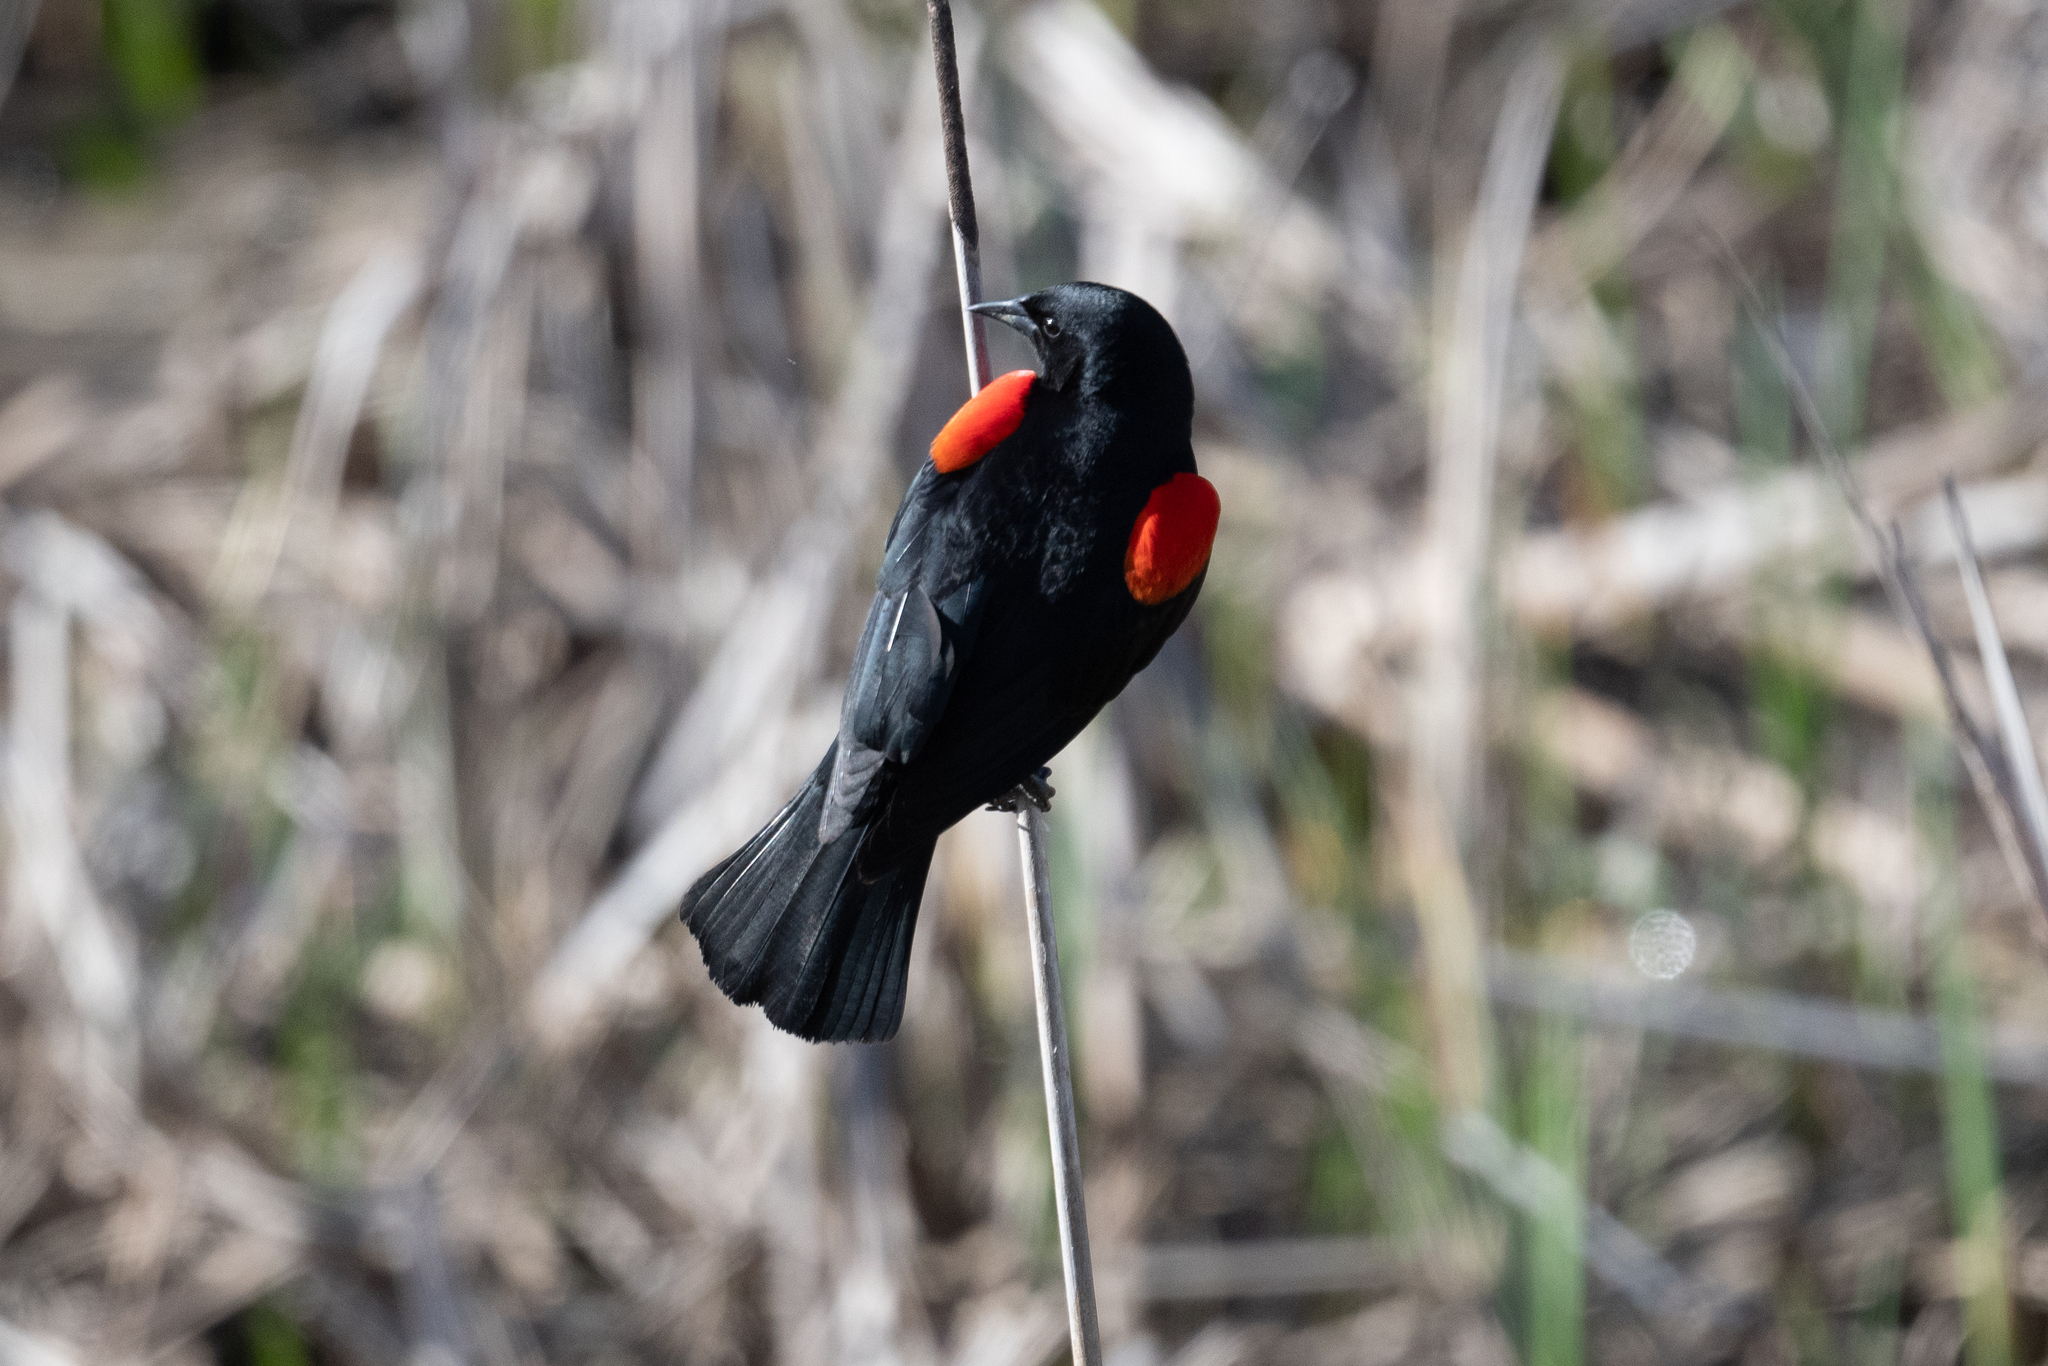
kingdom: Animalia
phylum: Chordata
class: Aves
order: Passeriformes
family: Icteridae
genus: Agelaius
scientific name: Agelaius phoeniceus
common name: Red-winged blackbird
